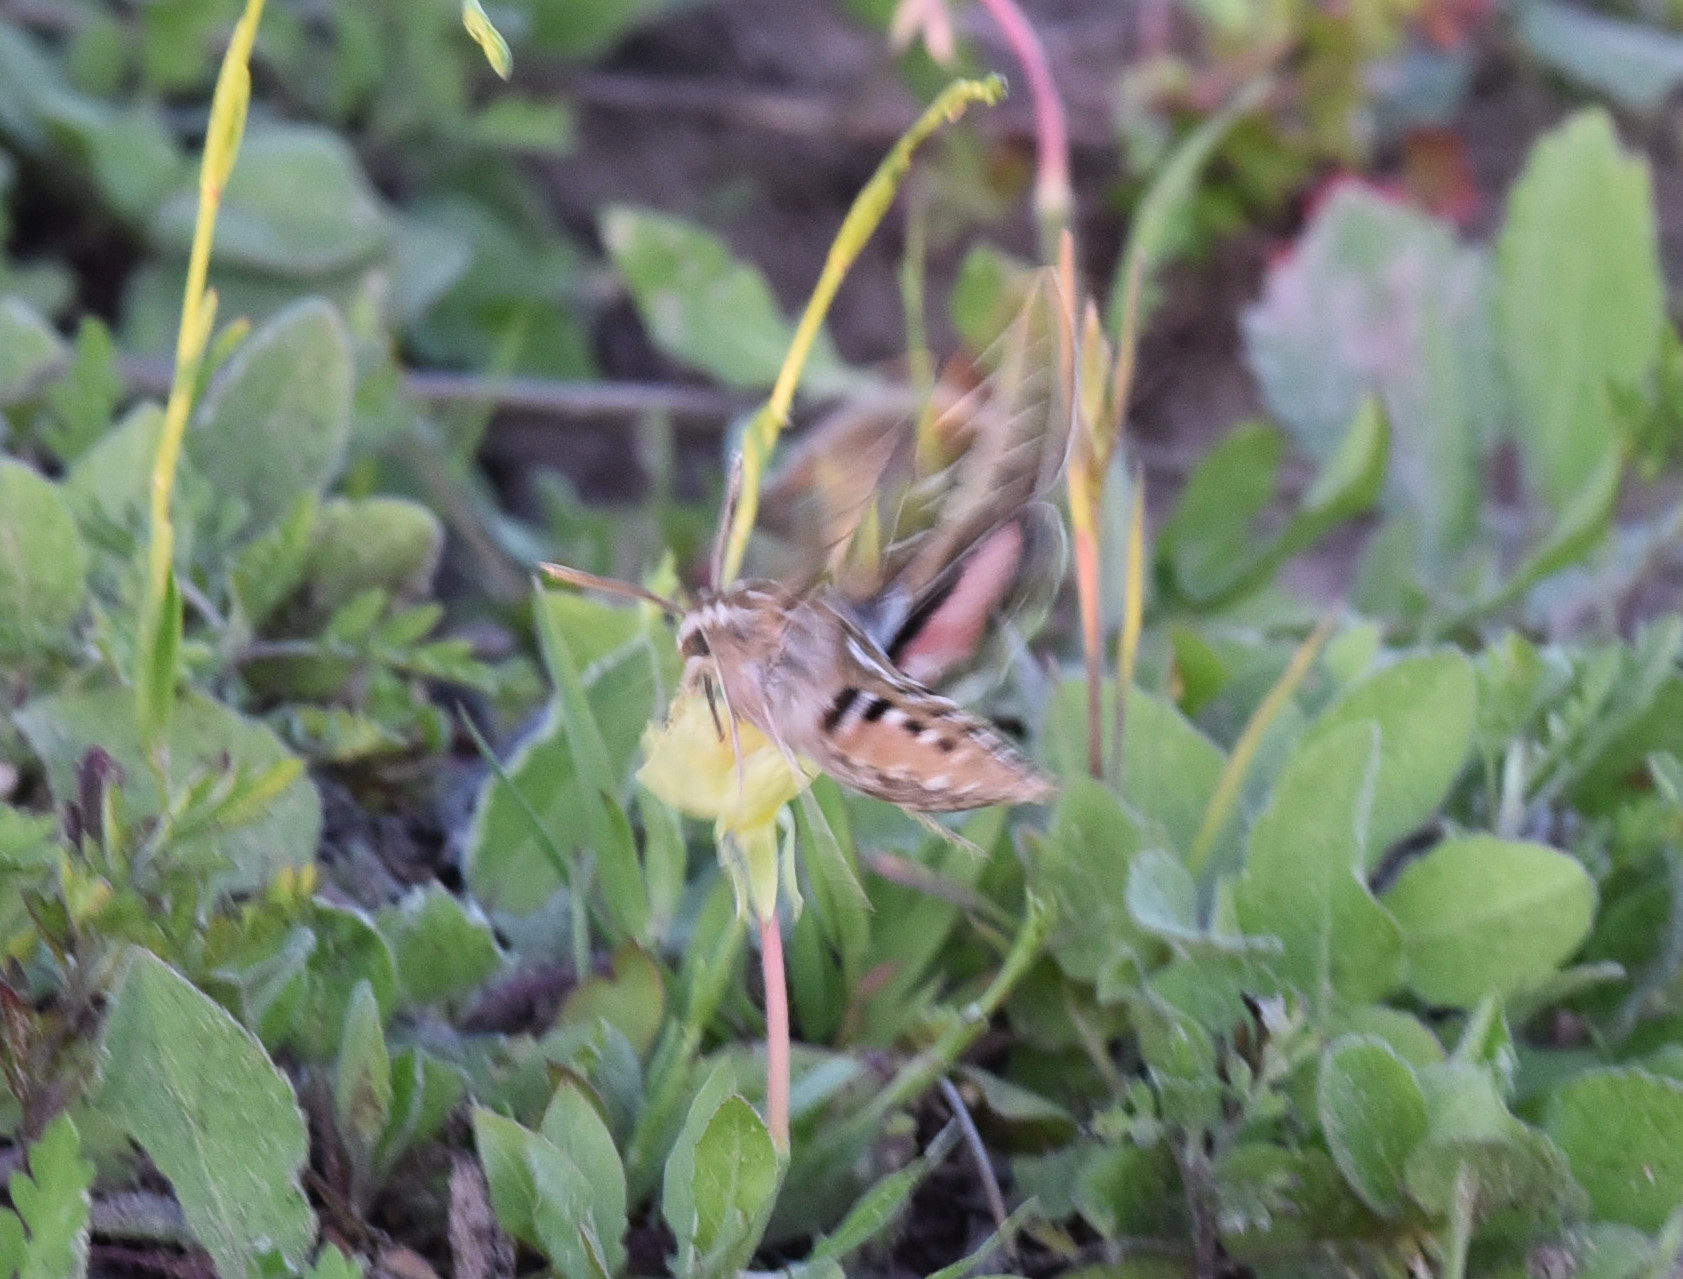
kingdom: Animalia
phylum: Arthropoda
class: Insecta
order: Lepidoptera
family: Sphingidae
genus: Hyles
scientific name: Hyles lineata
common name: White-lined sphinx
